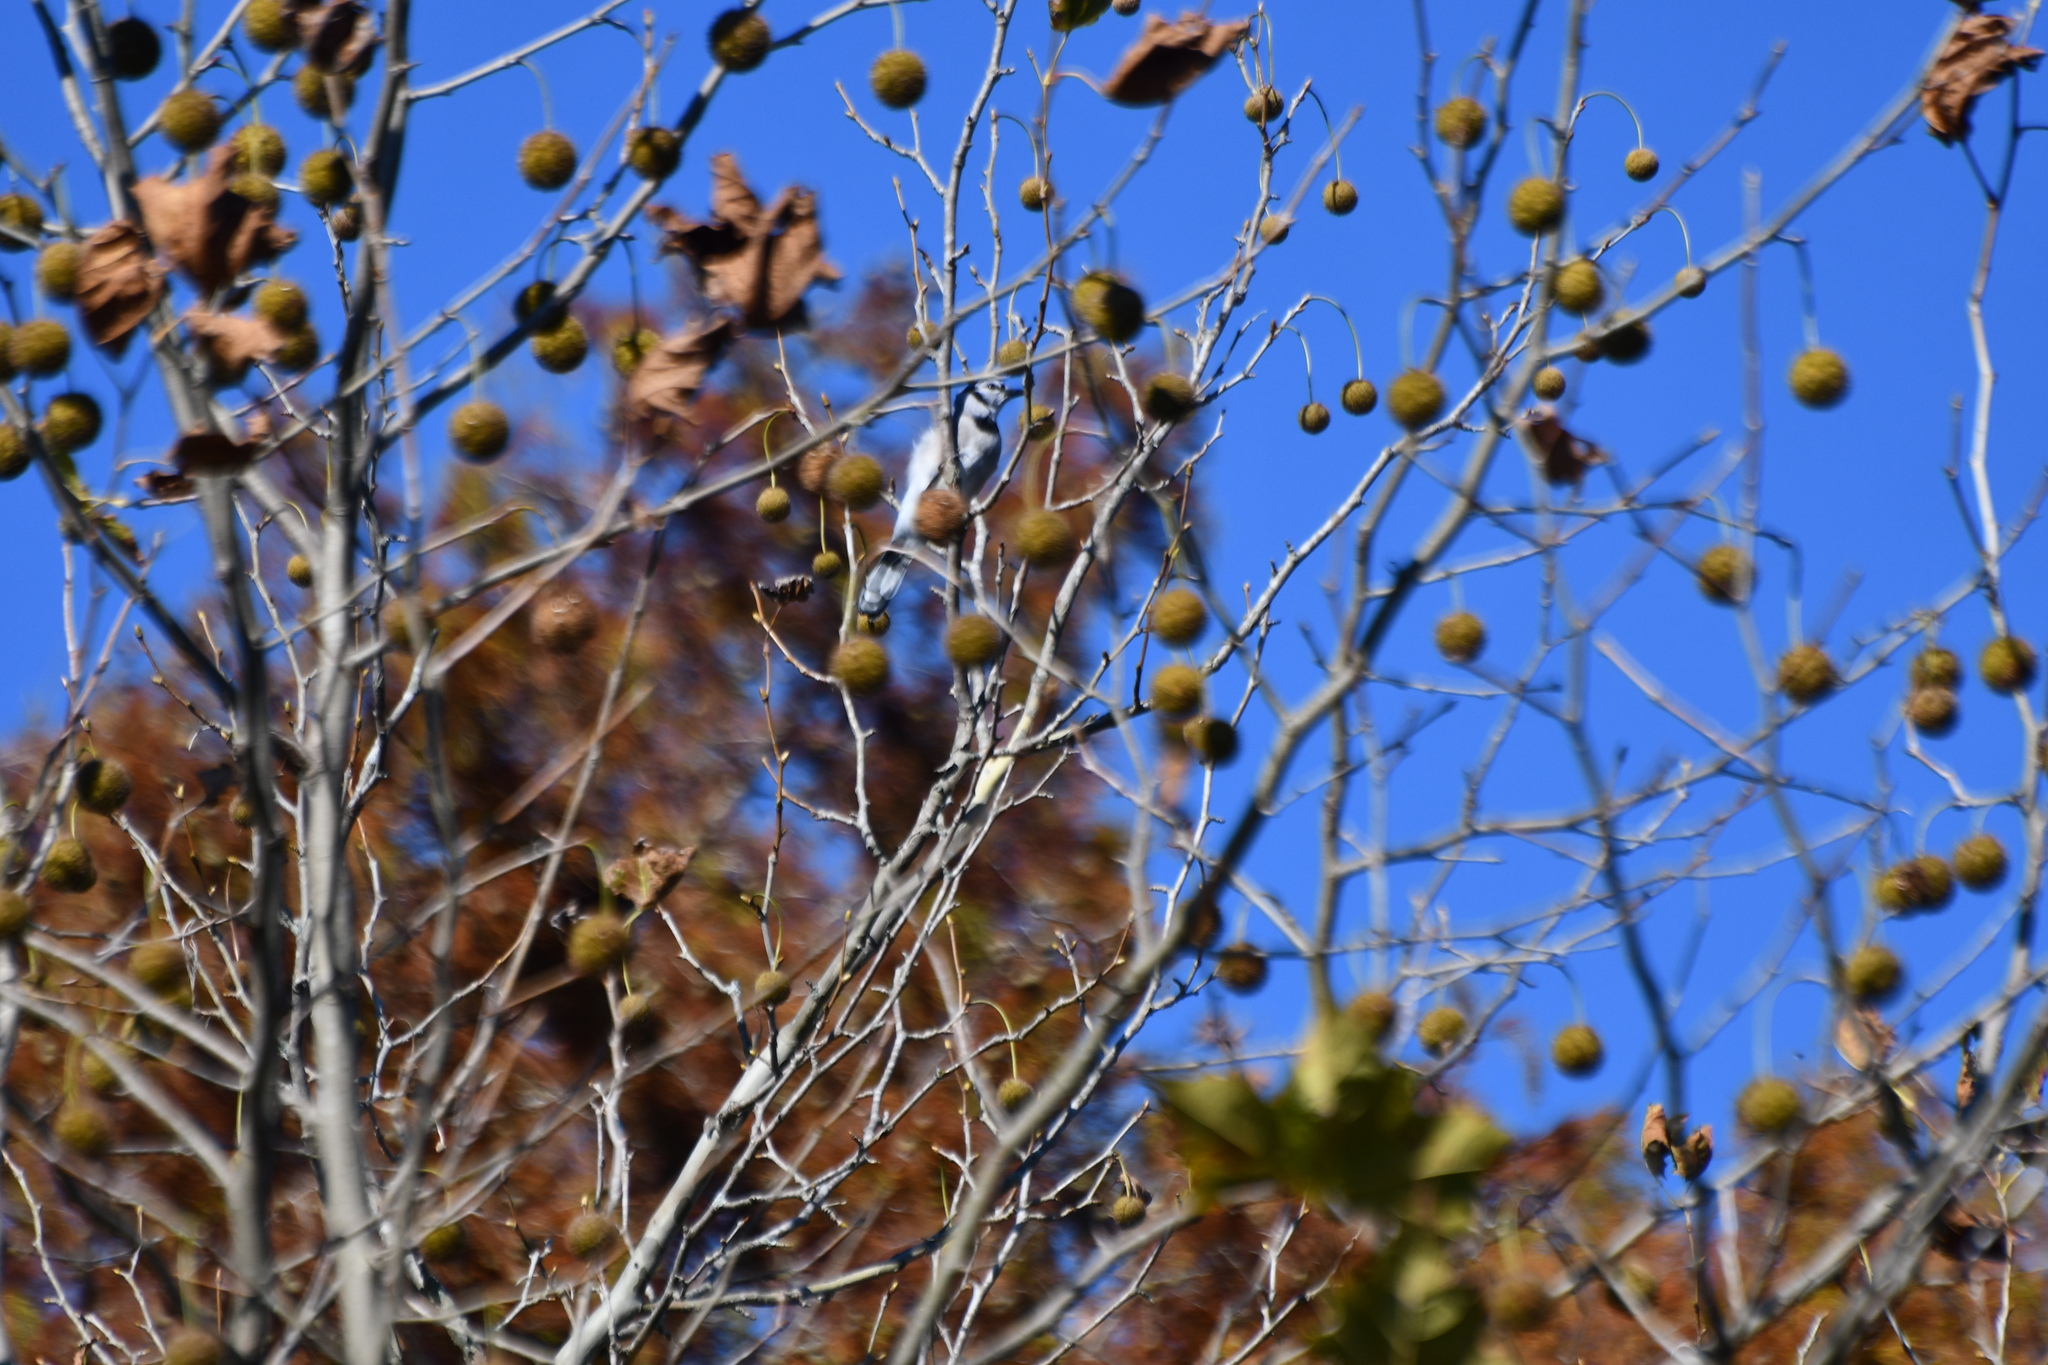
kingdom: Animalia
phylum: Chordata
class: Aves
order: Passeriformes
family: Corvidae
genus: Cyanocitta
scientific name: Cyanocitta cristata
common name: Blue jay
